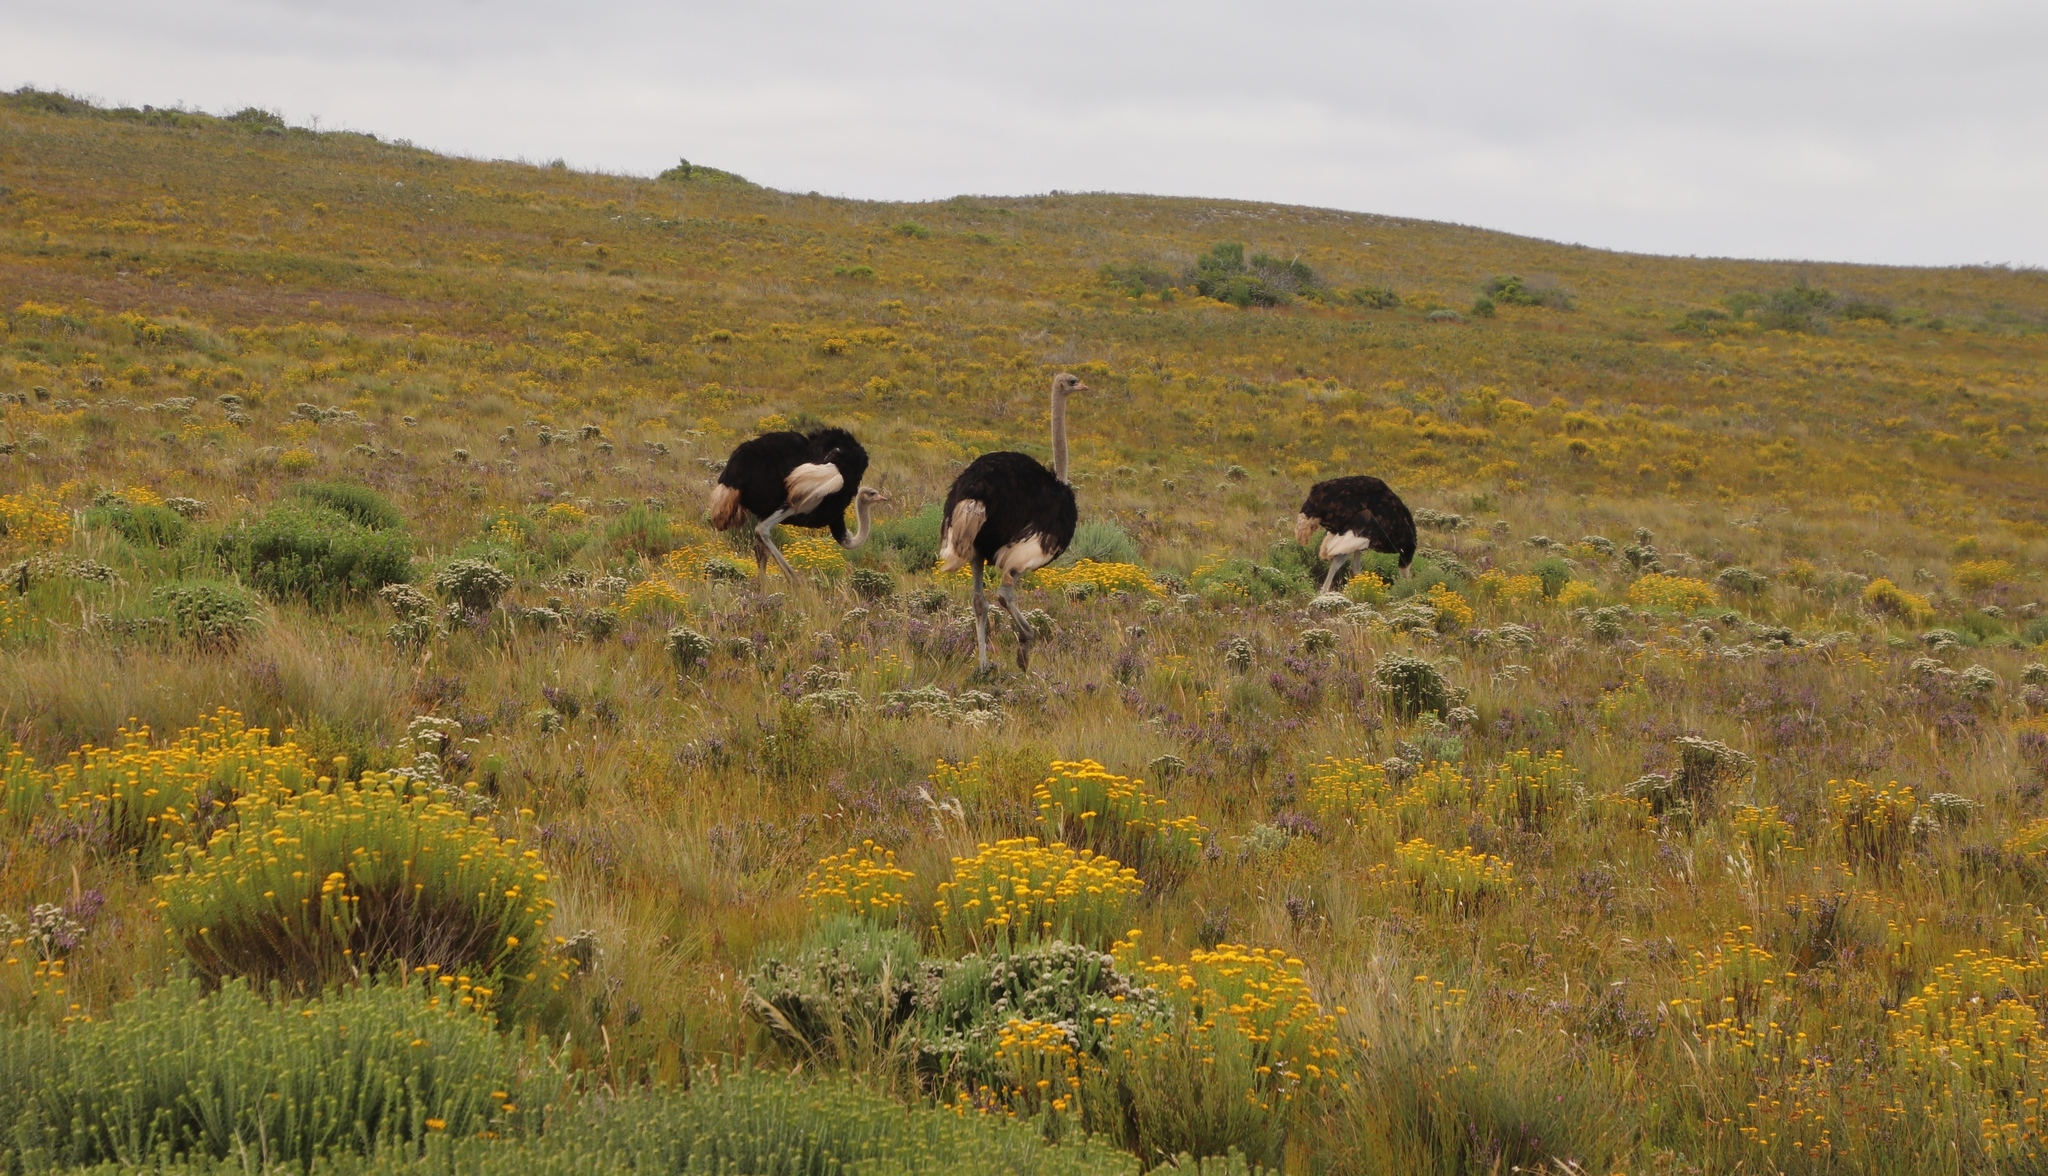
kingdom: Animalia
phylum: Chordata
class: Aves
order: Struthioniformes
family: Struthionidae
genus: Struthio
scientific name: Struthio camelus
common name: Common ostrich
